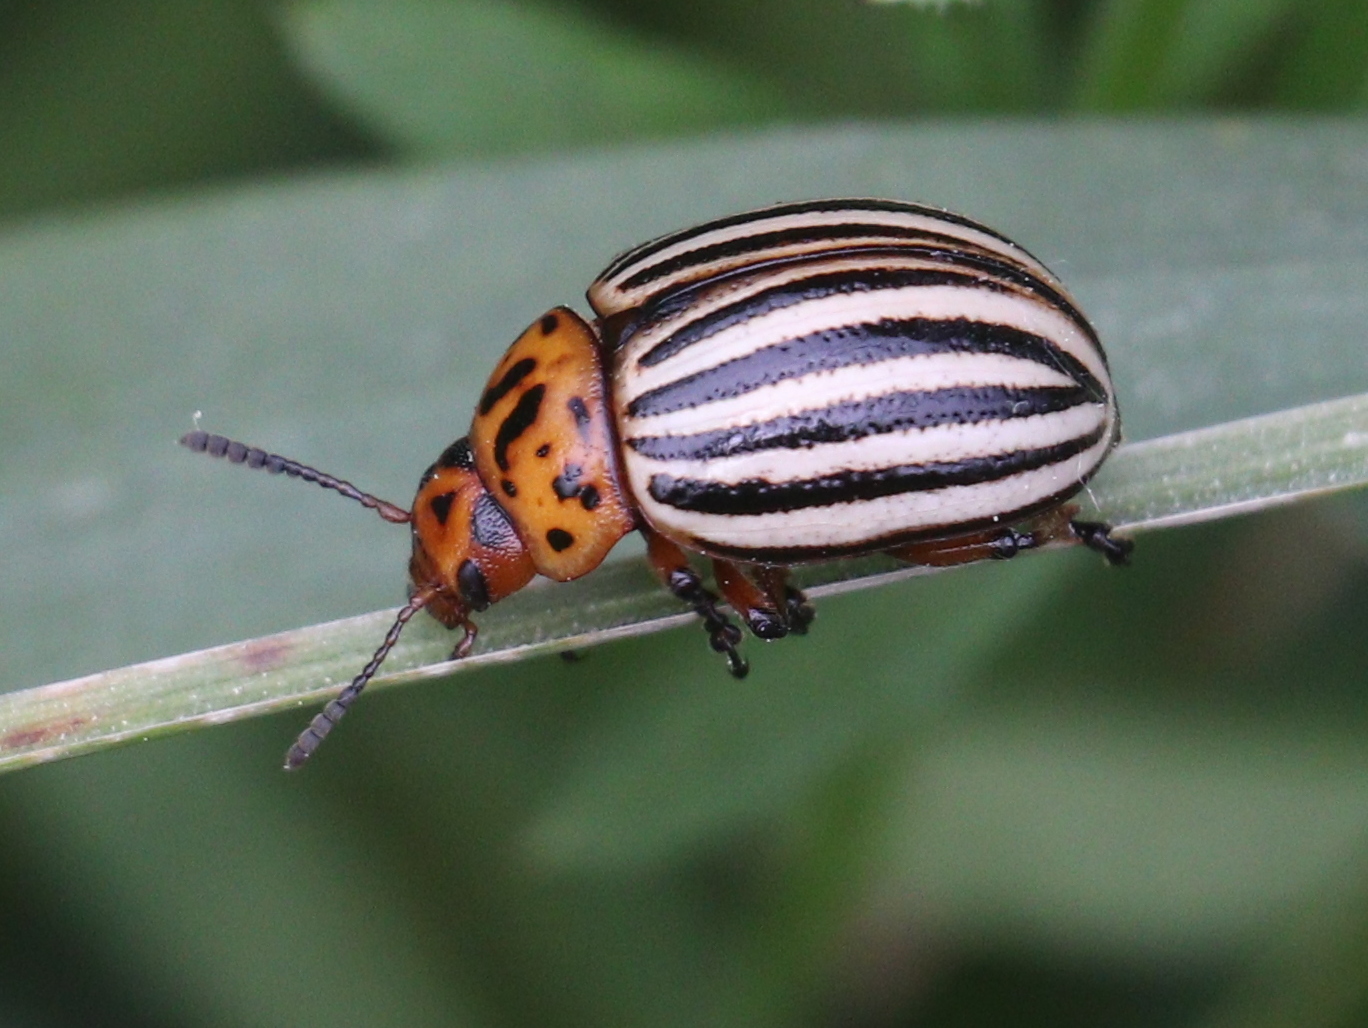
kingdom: Animalia
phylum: Arthropoda
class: Insecta
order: Coleoptera
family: Chrysomelidae
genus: Leptinotarsa
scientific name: Leptinotarsa decemlineata
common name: Colorado potato beetle
